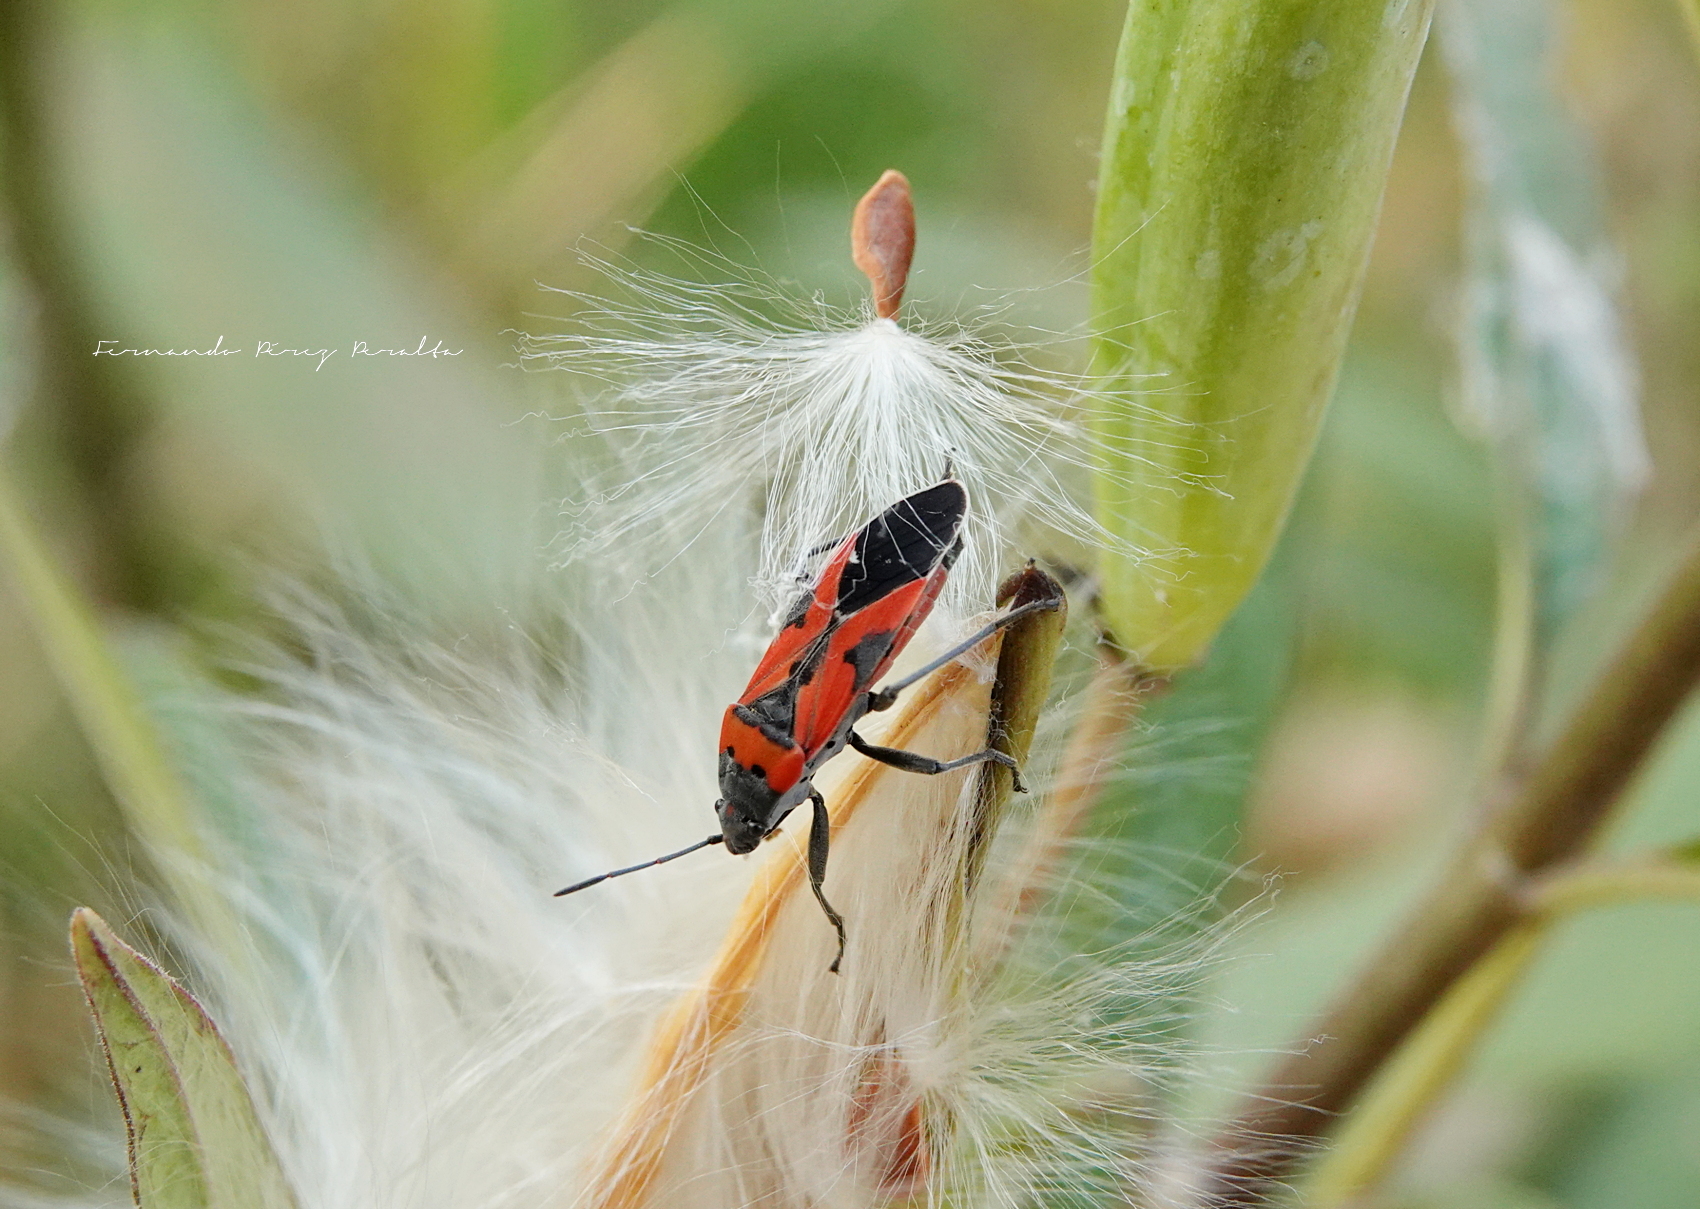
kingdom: Animalia
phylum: Arthropoda
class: Insecta
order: Hemiptera
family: Lygaeidae
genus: Lygaeus
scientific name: Lygaeus reclivatus
